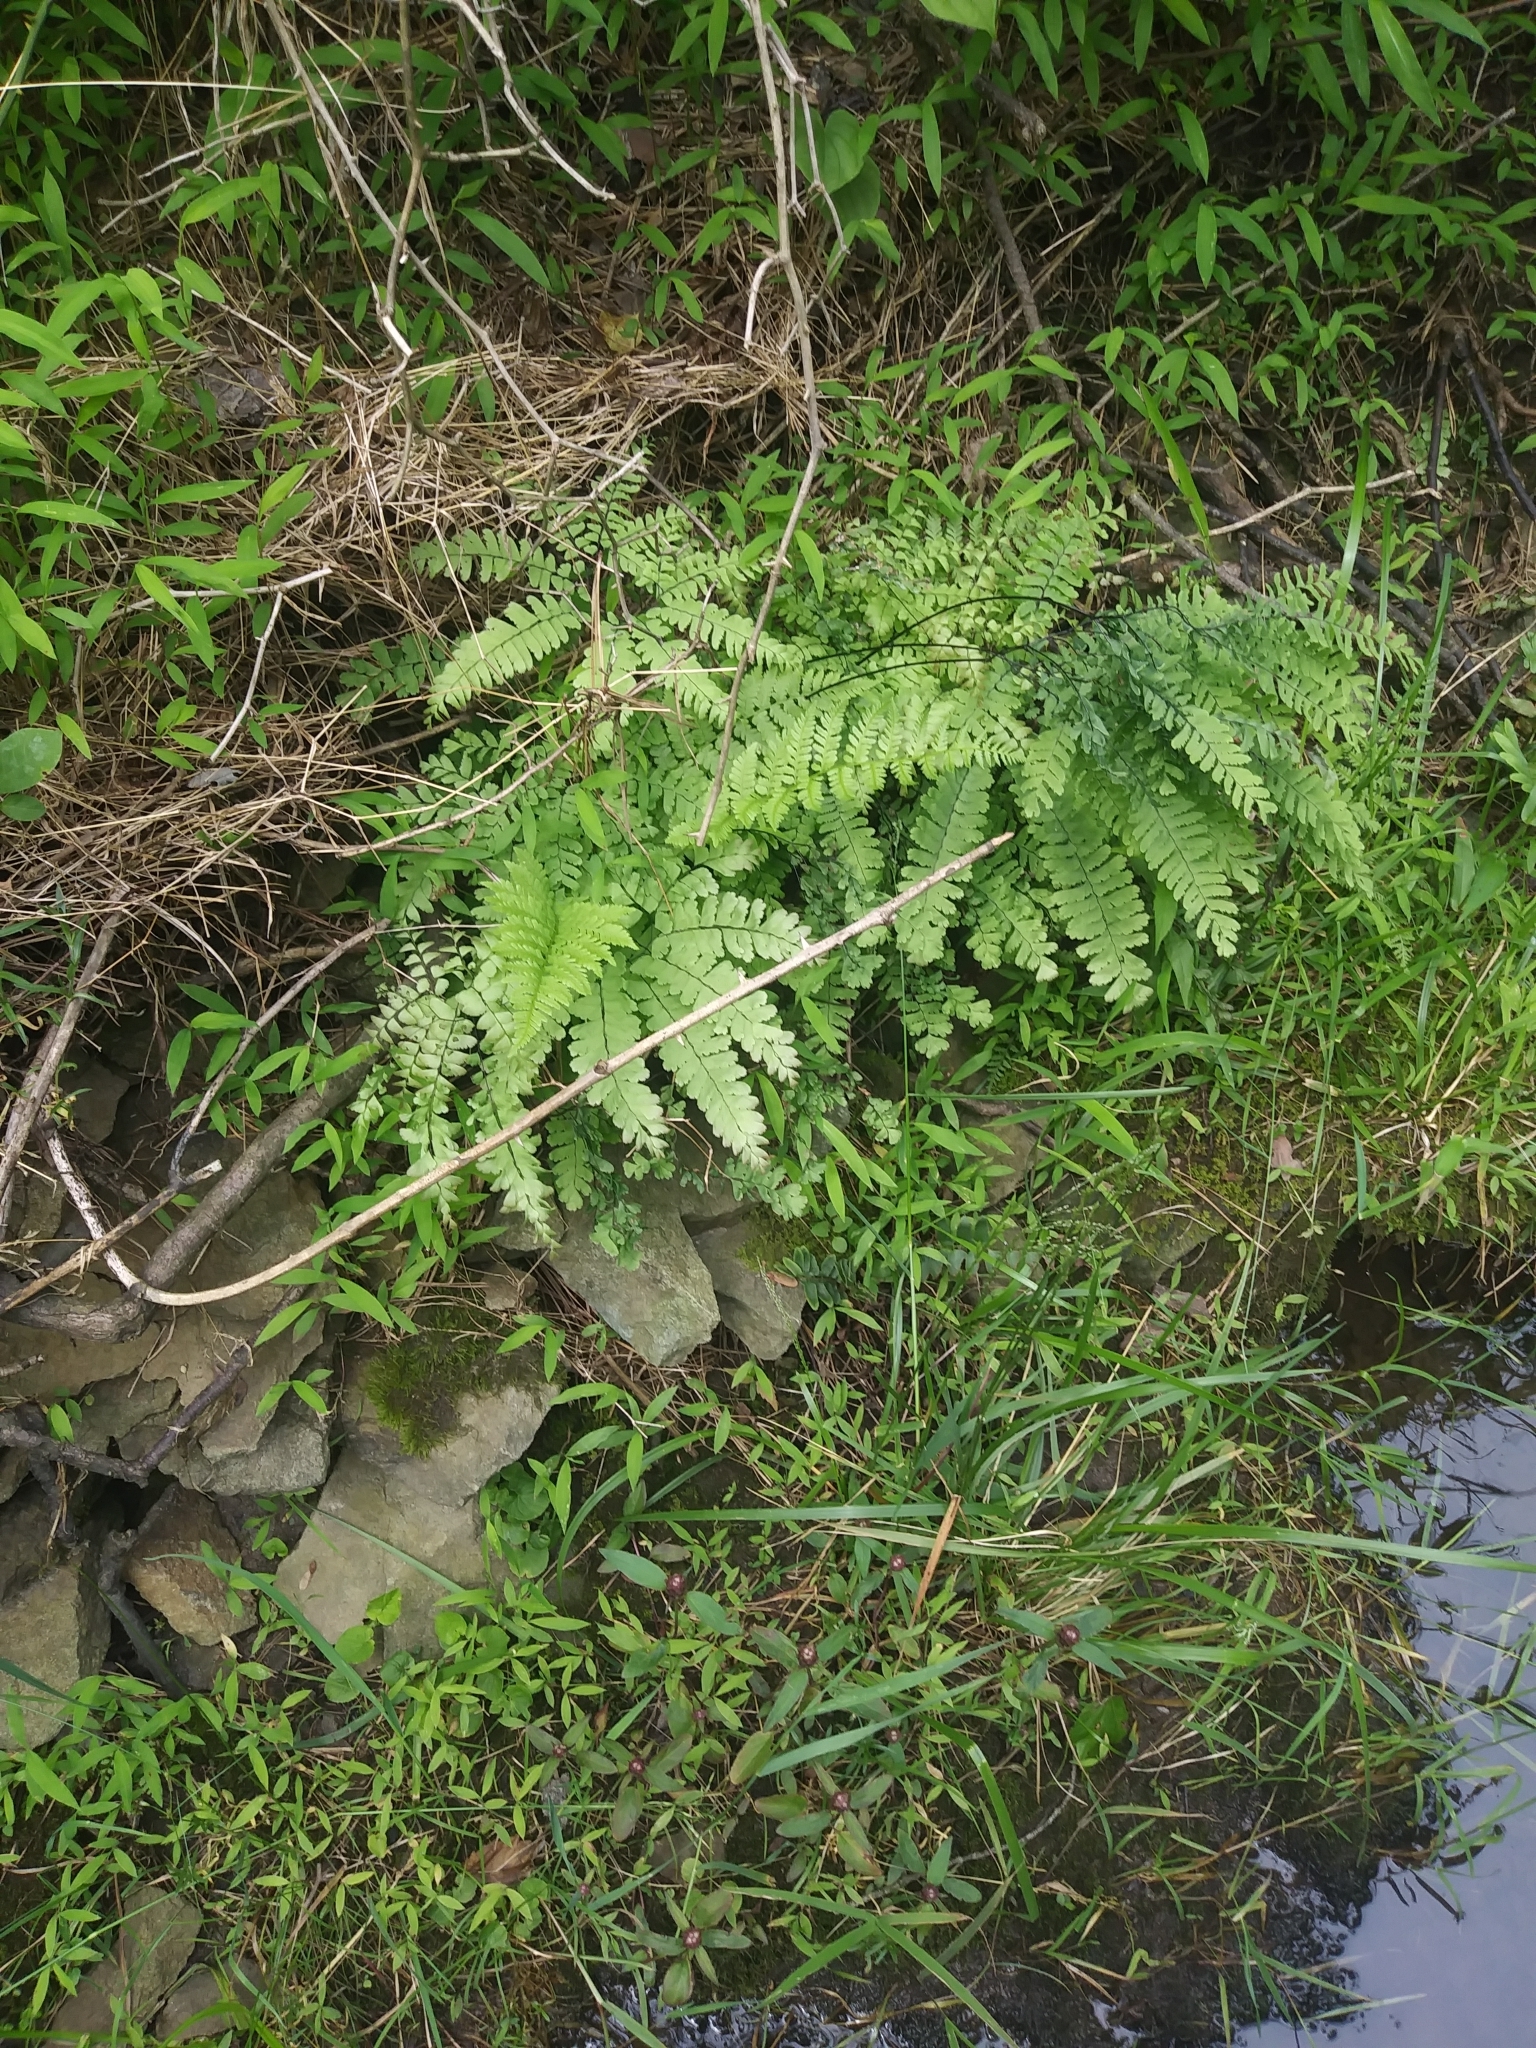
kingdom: Plantae
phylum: Tracheophyta
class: Polypodiopsida
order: Polypodiales
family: Pteridaceae
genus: Adiantum
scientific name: Adiantum pedatum
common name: Five-finger fern
